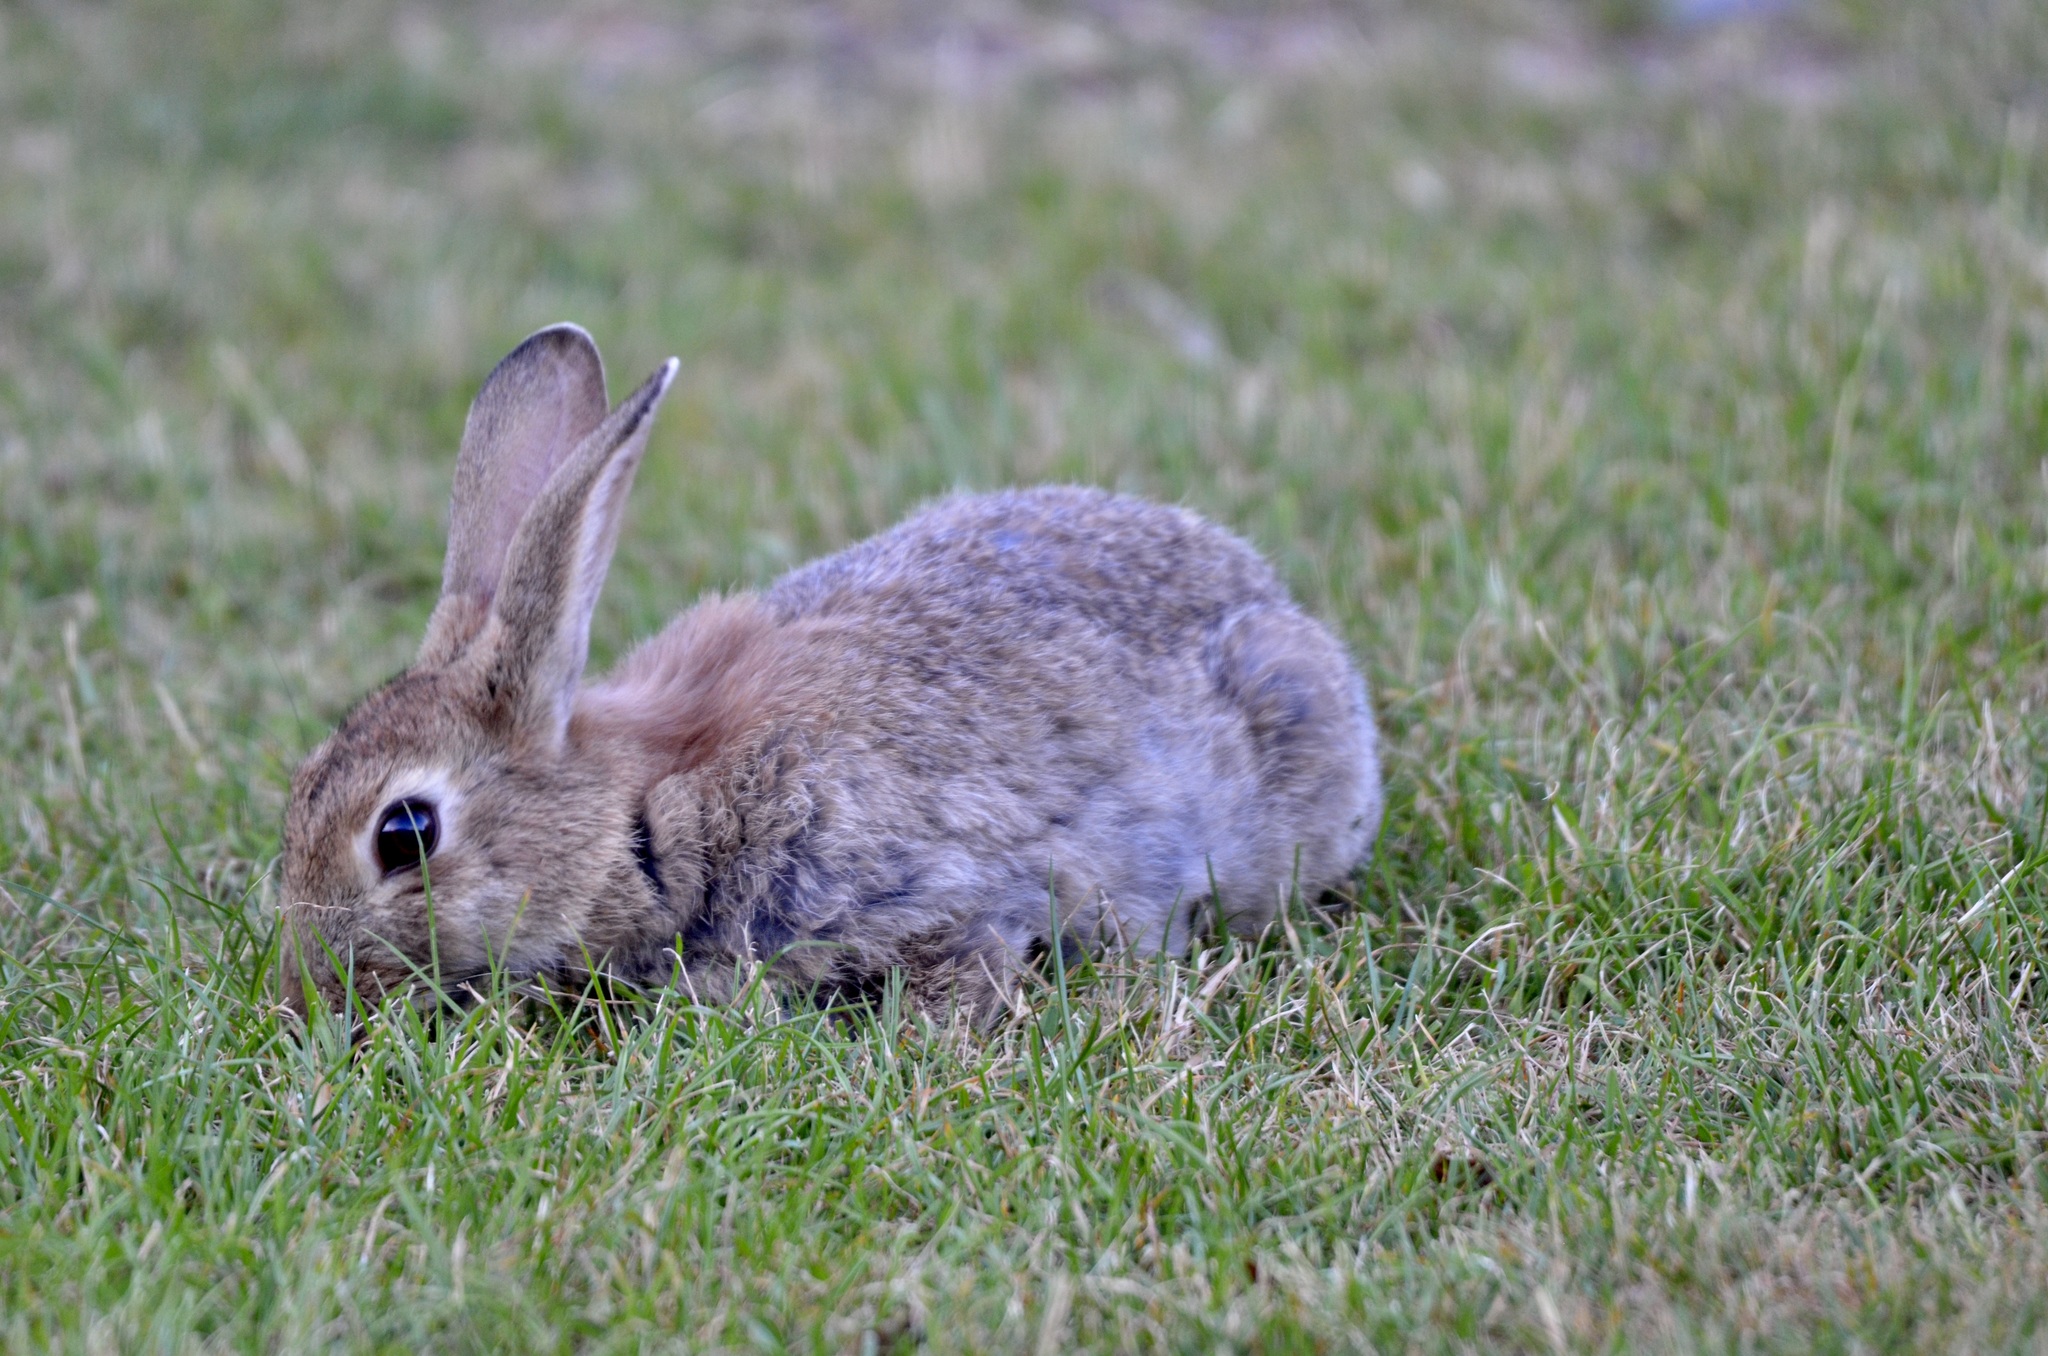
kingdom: Animalia
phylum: Chordata
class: Mammalia
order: Lagomorpha
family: Leporidae
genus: Oryctolagus
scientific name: Oryctolagus cuniculus
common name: European rabbit
